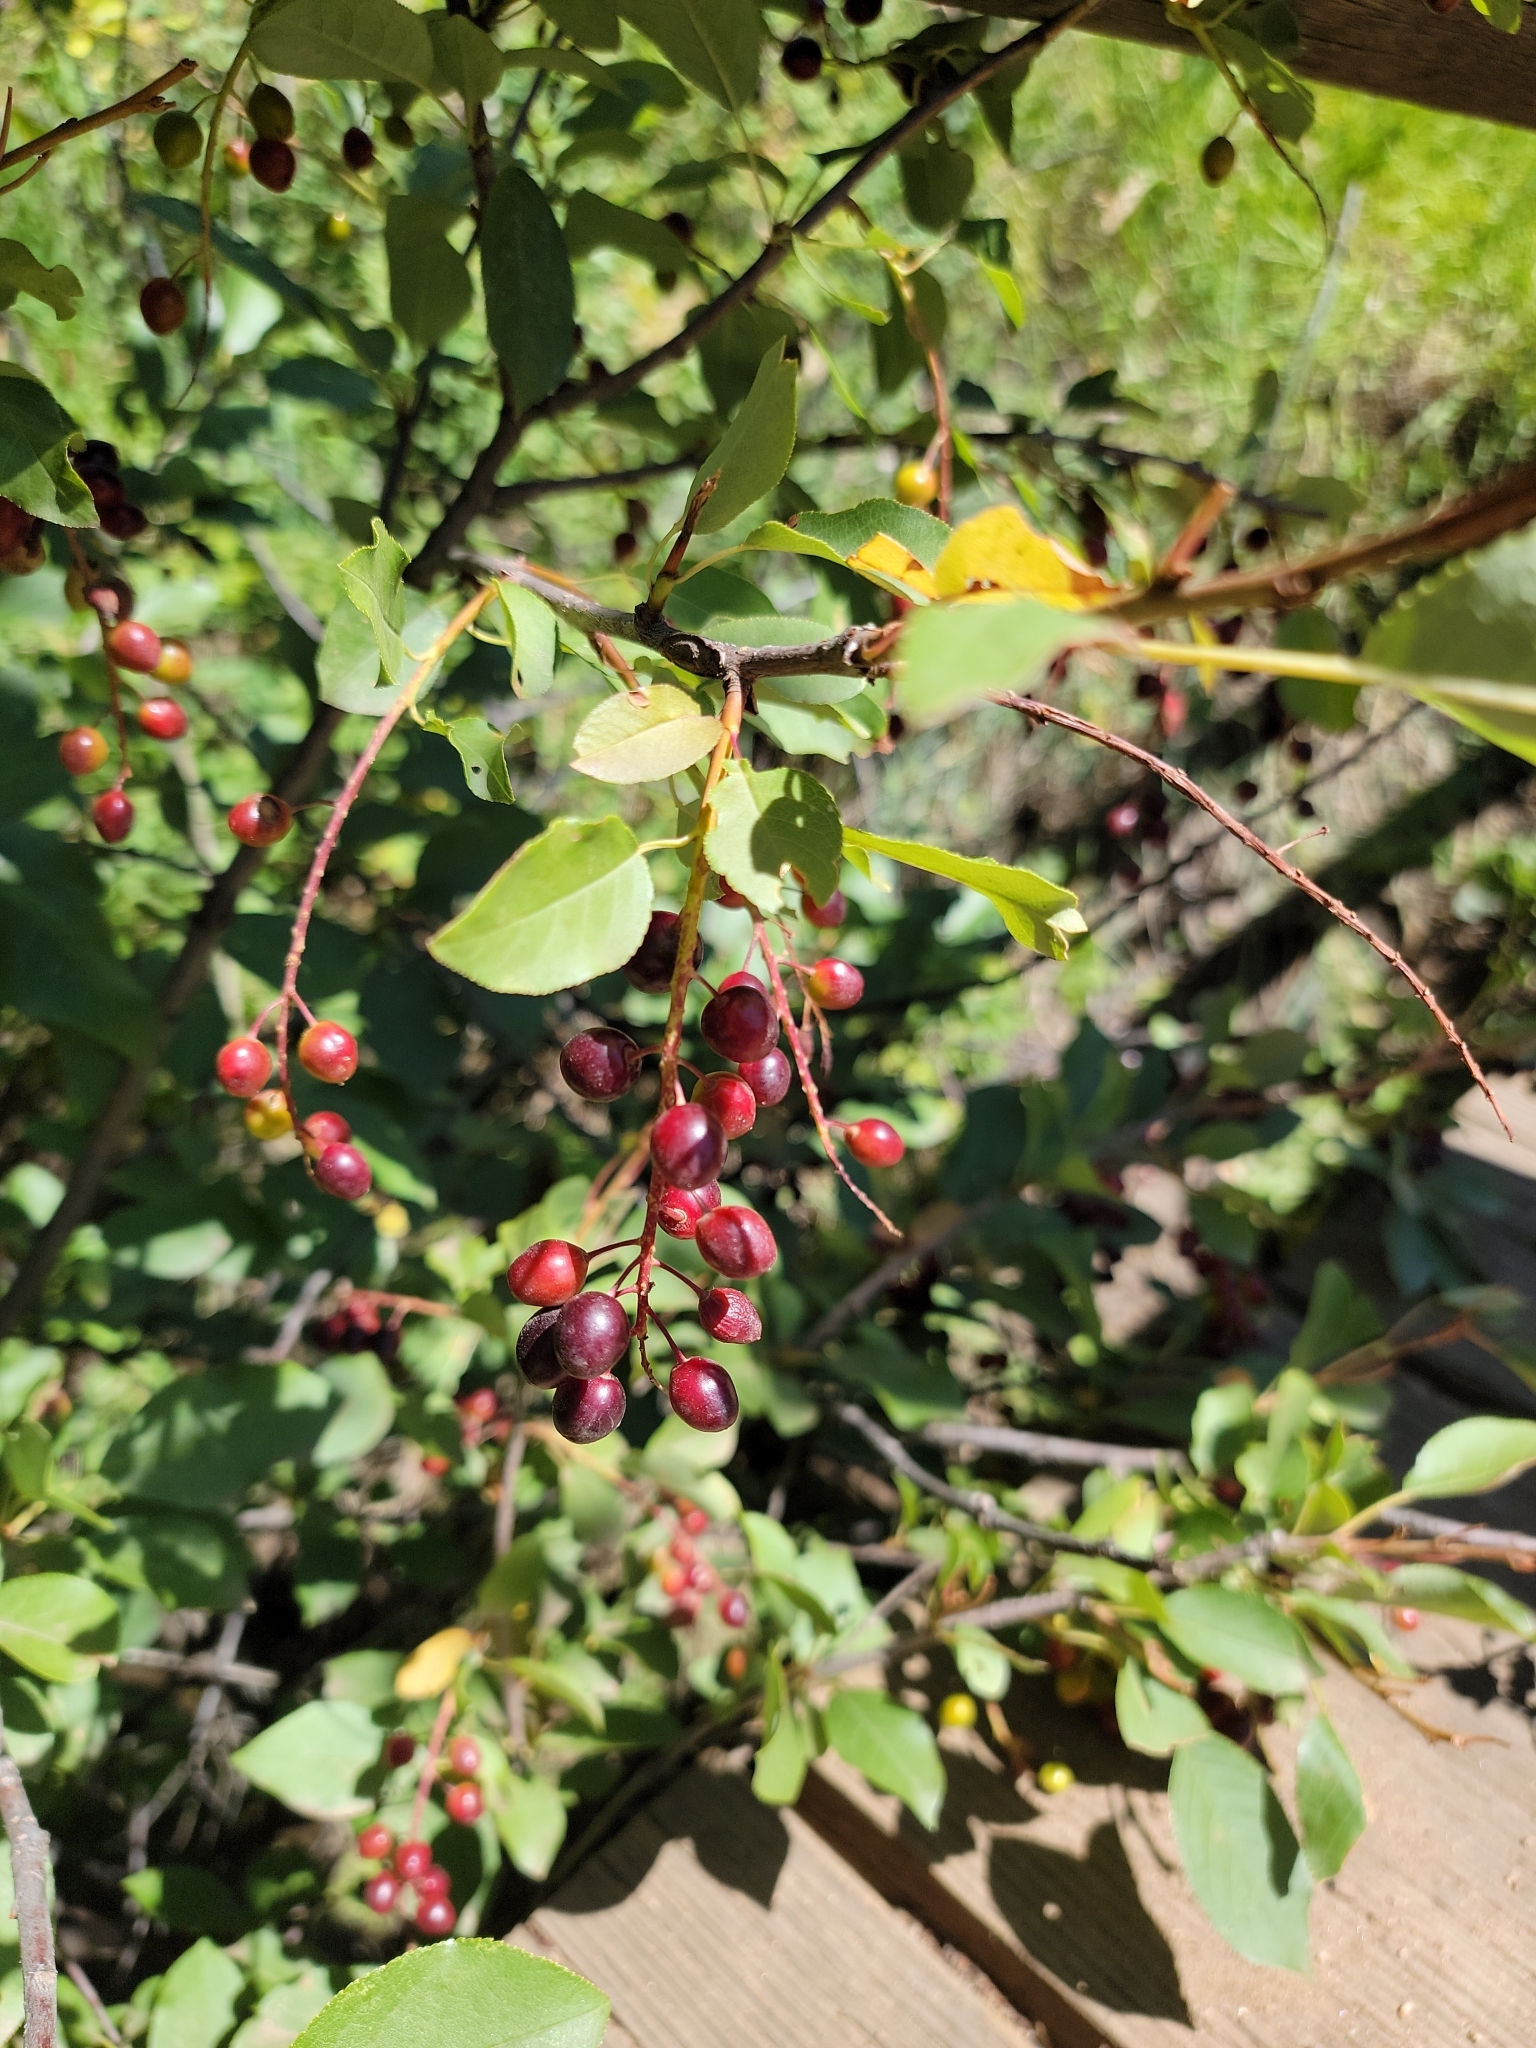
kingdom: Plantae
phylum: Tracheophyta
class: Magnoliopsida
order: Rosales
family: Rosaceae
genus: Prunus
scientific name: Prunus virginiana
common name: Chokecherry
